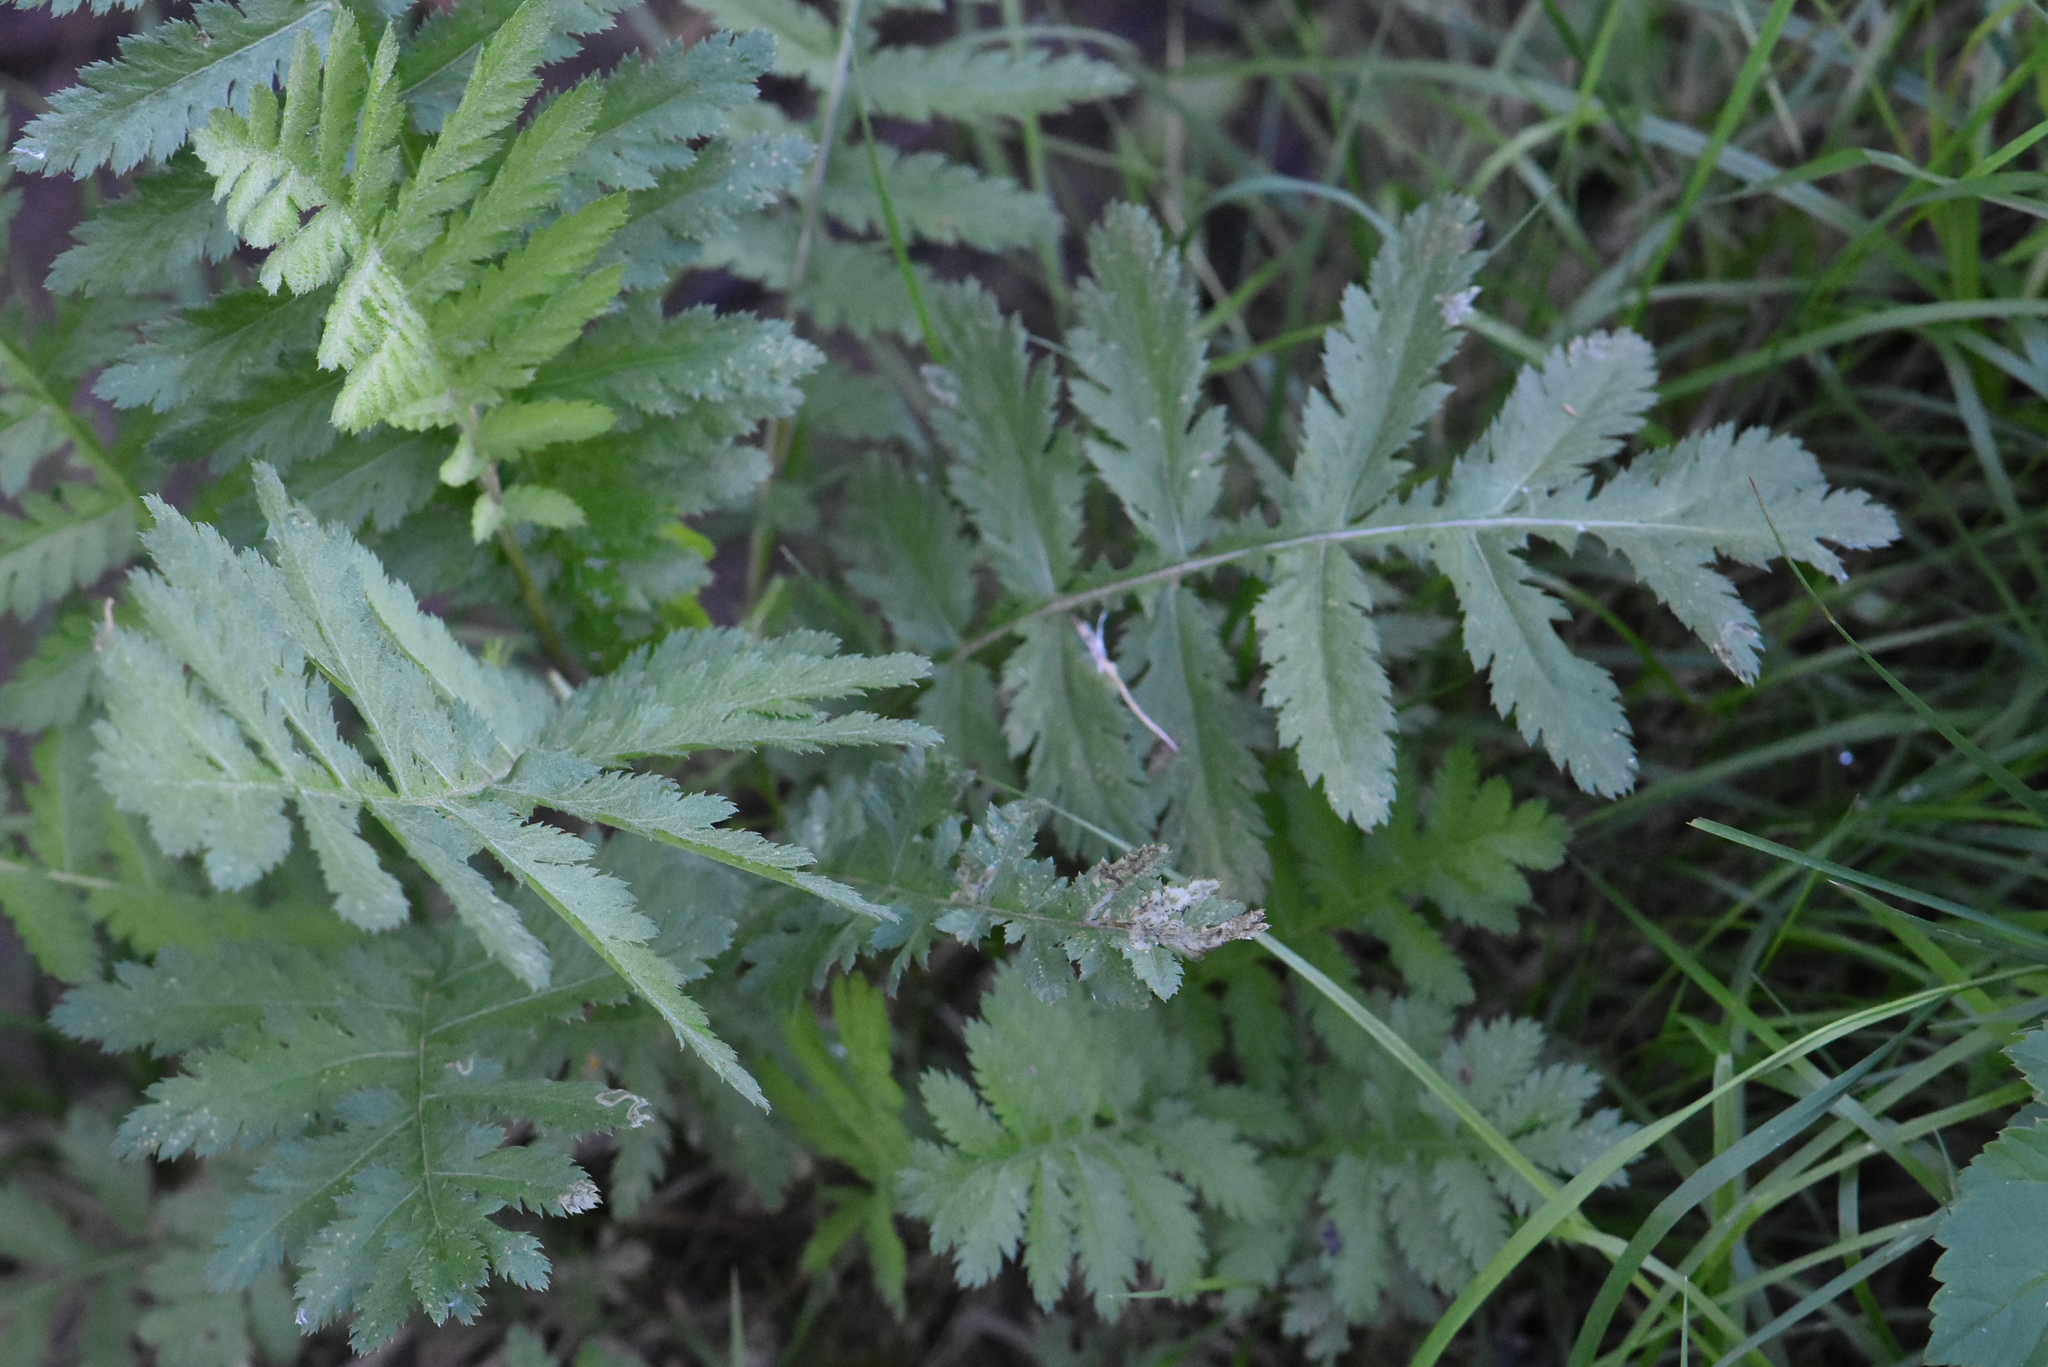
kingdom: Plantae
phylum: Tracheophyta
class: Magnoliopsida
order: Asterales
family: Asteraceae
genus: Tanacetum
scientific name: Tanacetum vulgare
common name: Common tansy
